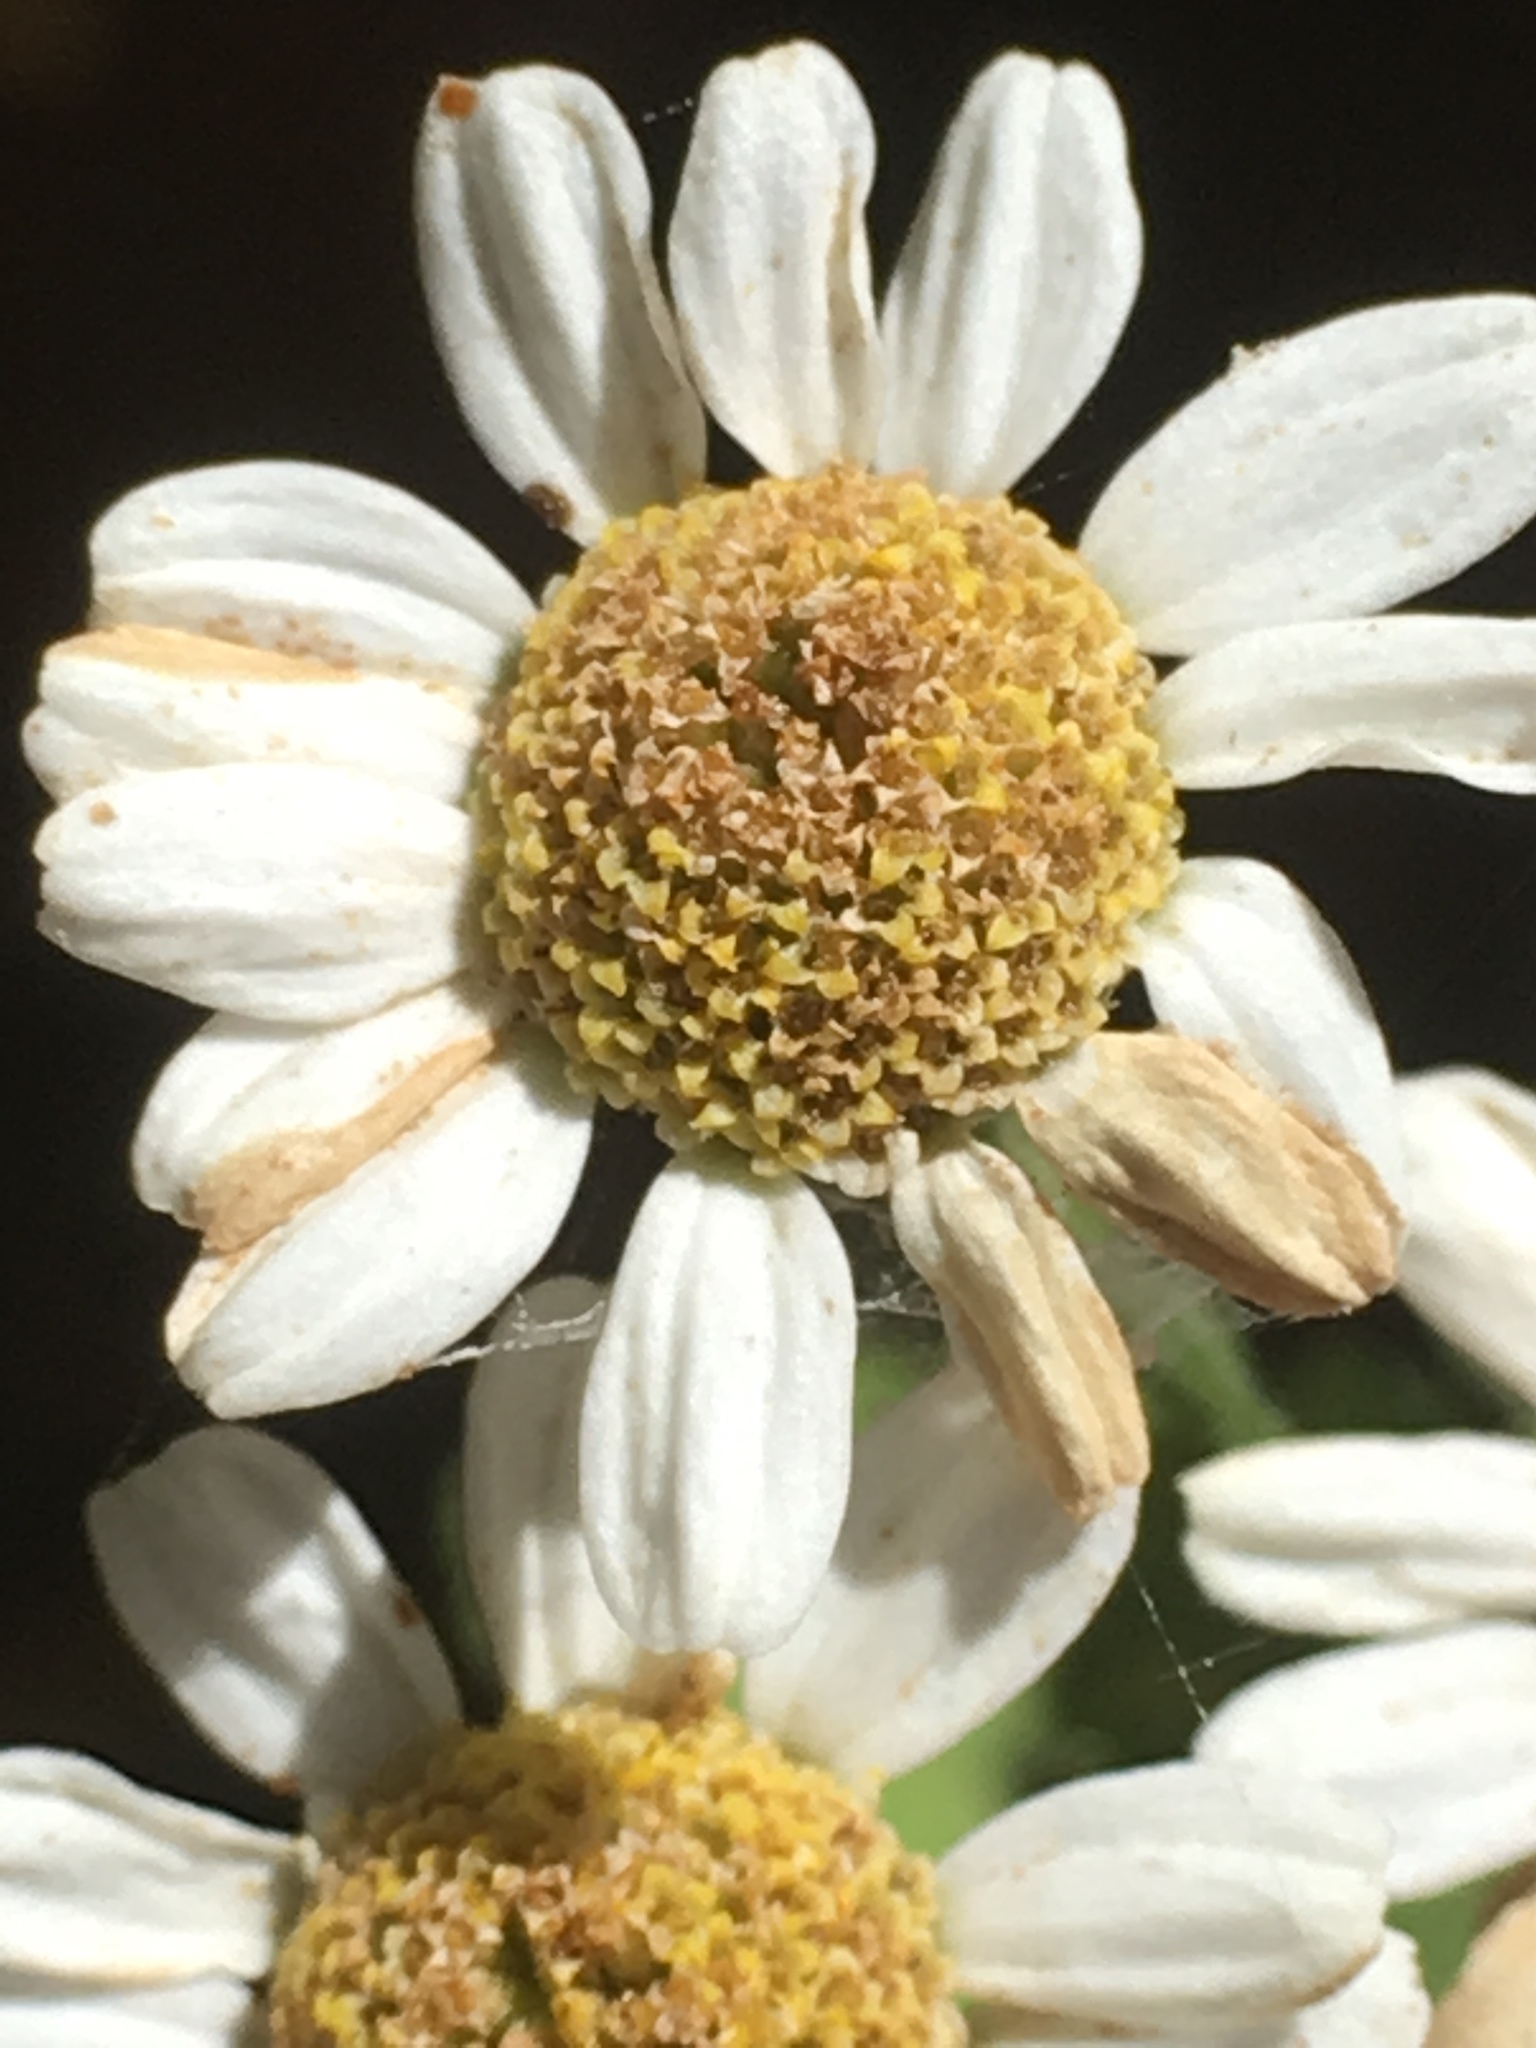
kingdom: Plantae
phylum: Tracheophyta
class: Magnoliopsida
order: Asterales
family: Asteraceae
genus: Tanacetum
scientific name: Tanacetum parthenium
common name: Feverfew
